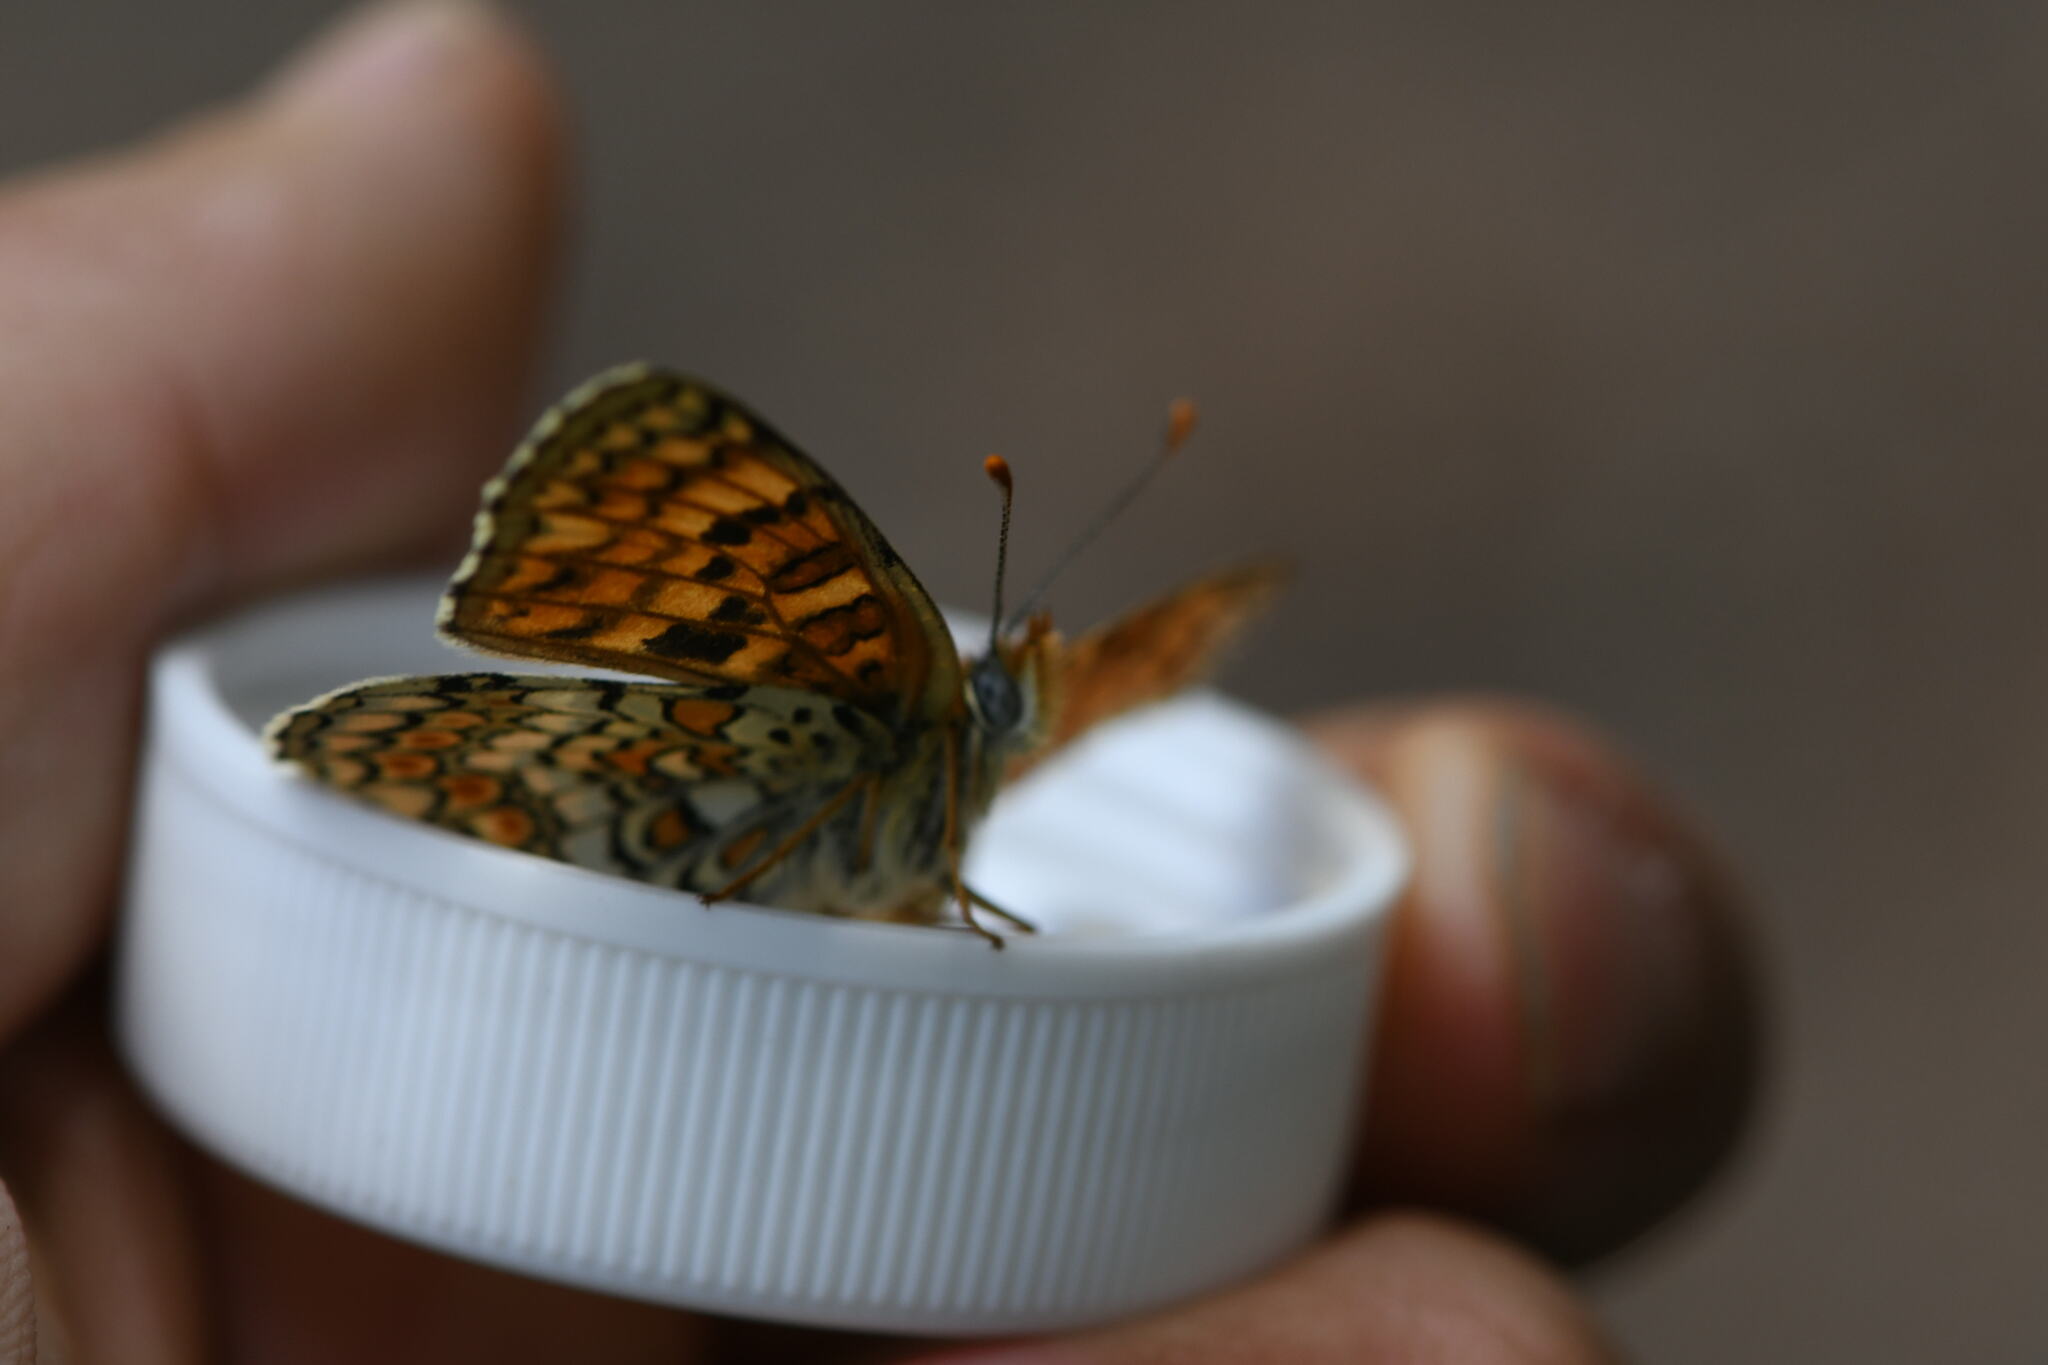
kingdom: Animalia
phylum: Arthropoda
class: Insecta
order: Lepidoptera
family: Nymphalidae
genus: Melitaea
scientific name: Melitaea phoebe
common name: Knapweed fritillary
